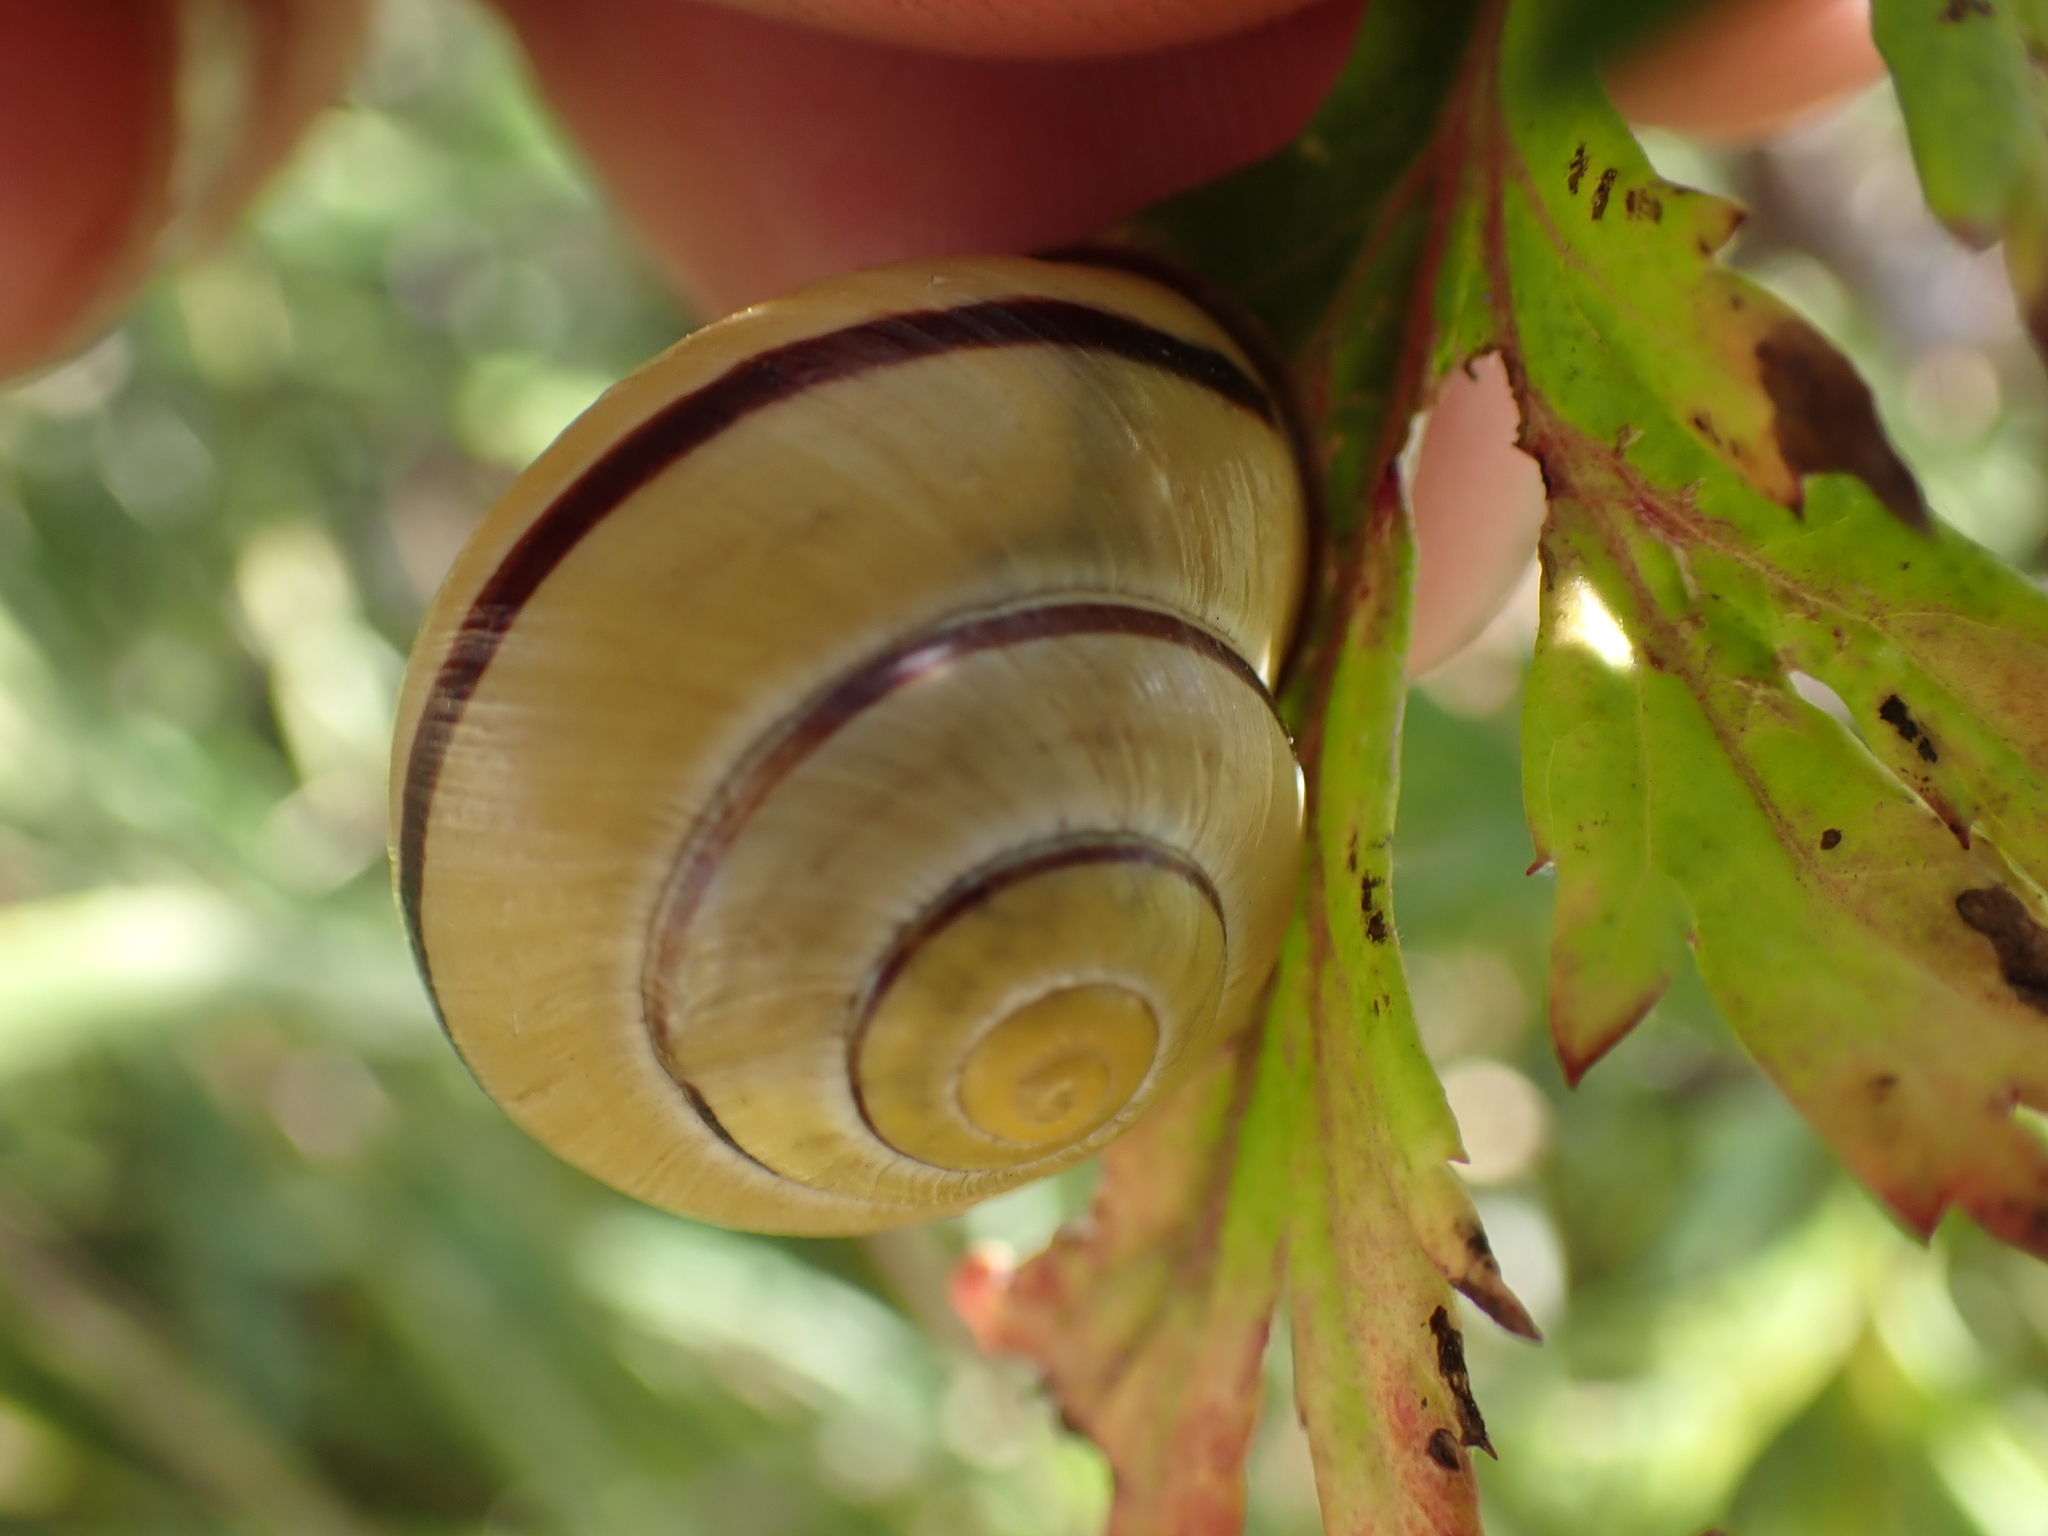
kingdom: Animalia
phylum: Mollusca
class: Gastropoda
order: Stylommatophora
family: Helicidae
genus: Cepaea
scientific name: Cepaea nemoralis
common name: Grovesnail
